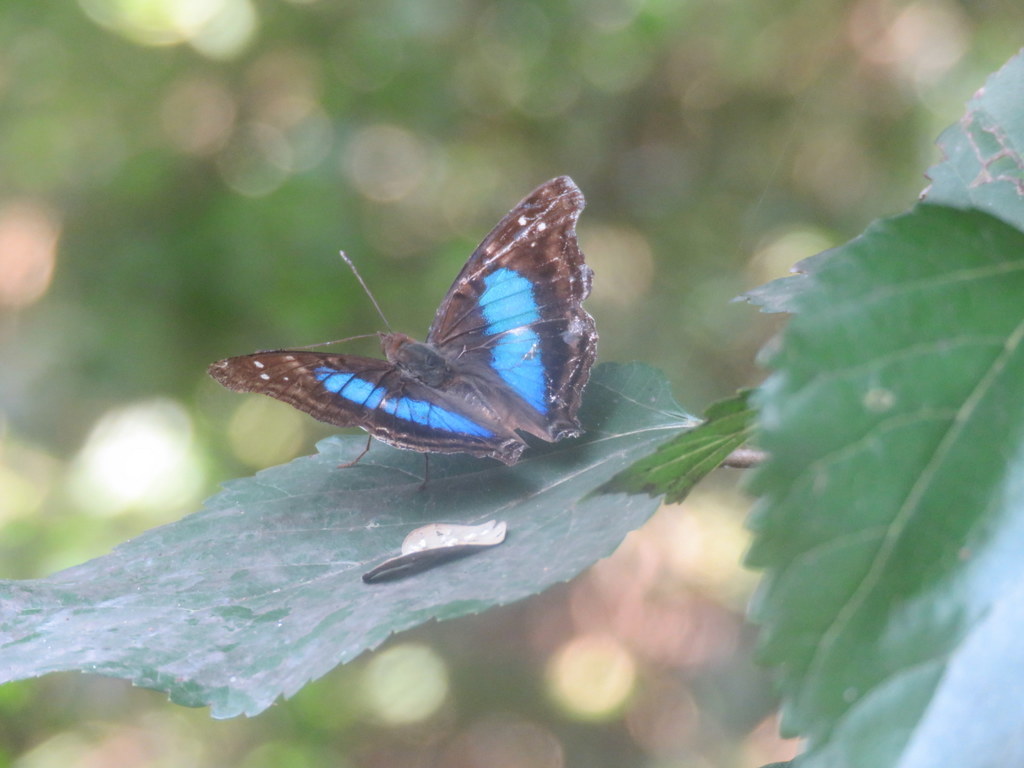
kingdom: Animalia
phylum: Arthropoda
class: Insecta
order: Lepidoptera
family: Nymphalidae
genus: Doxocopa
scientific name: Doxocopa laurentia
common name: Turquoise emperor
